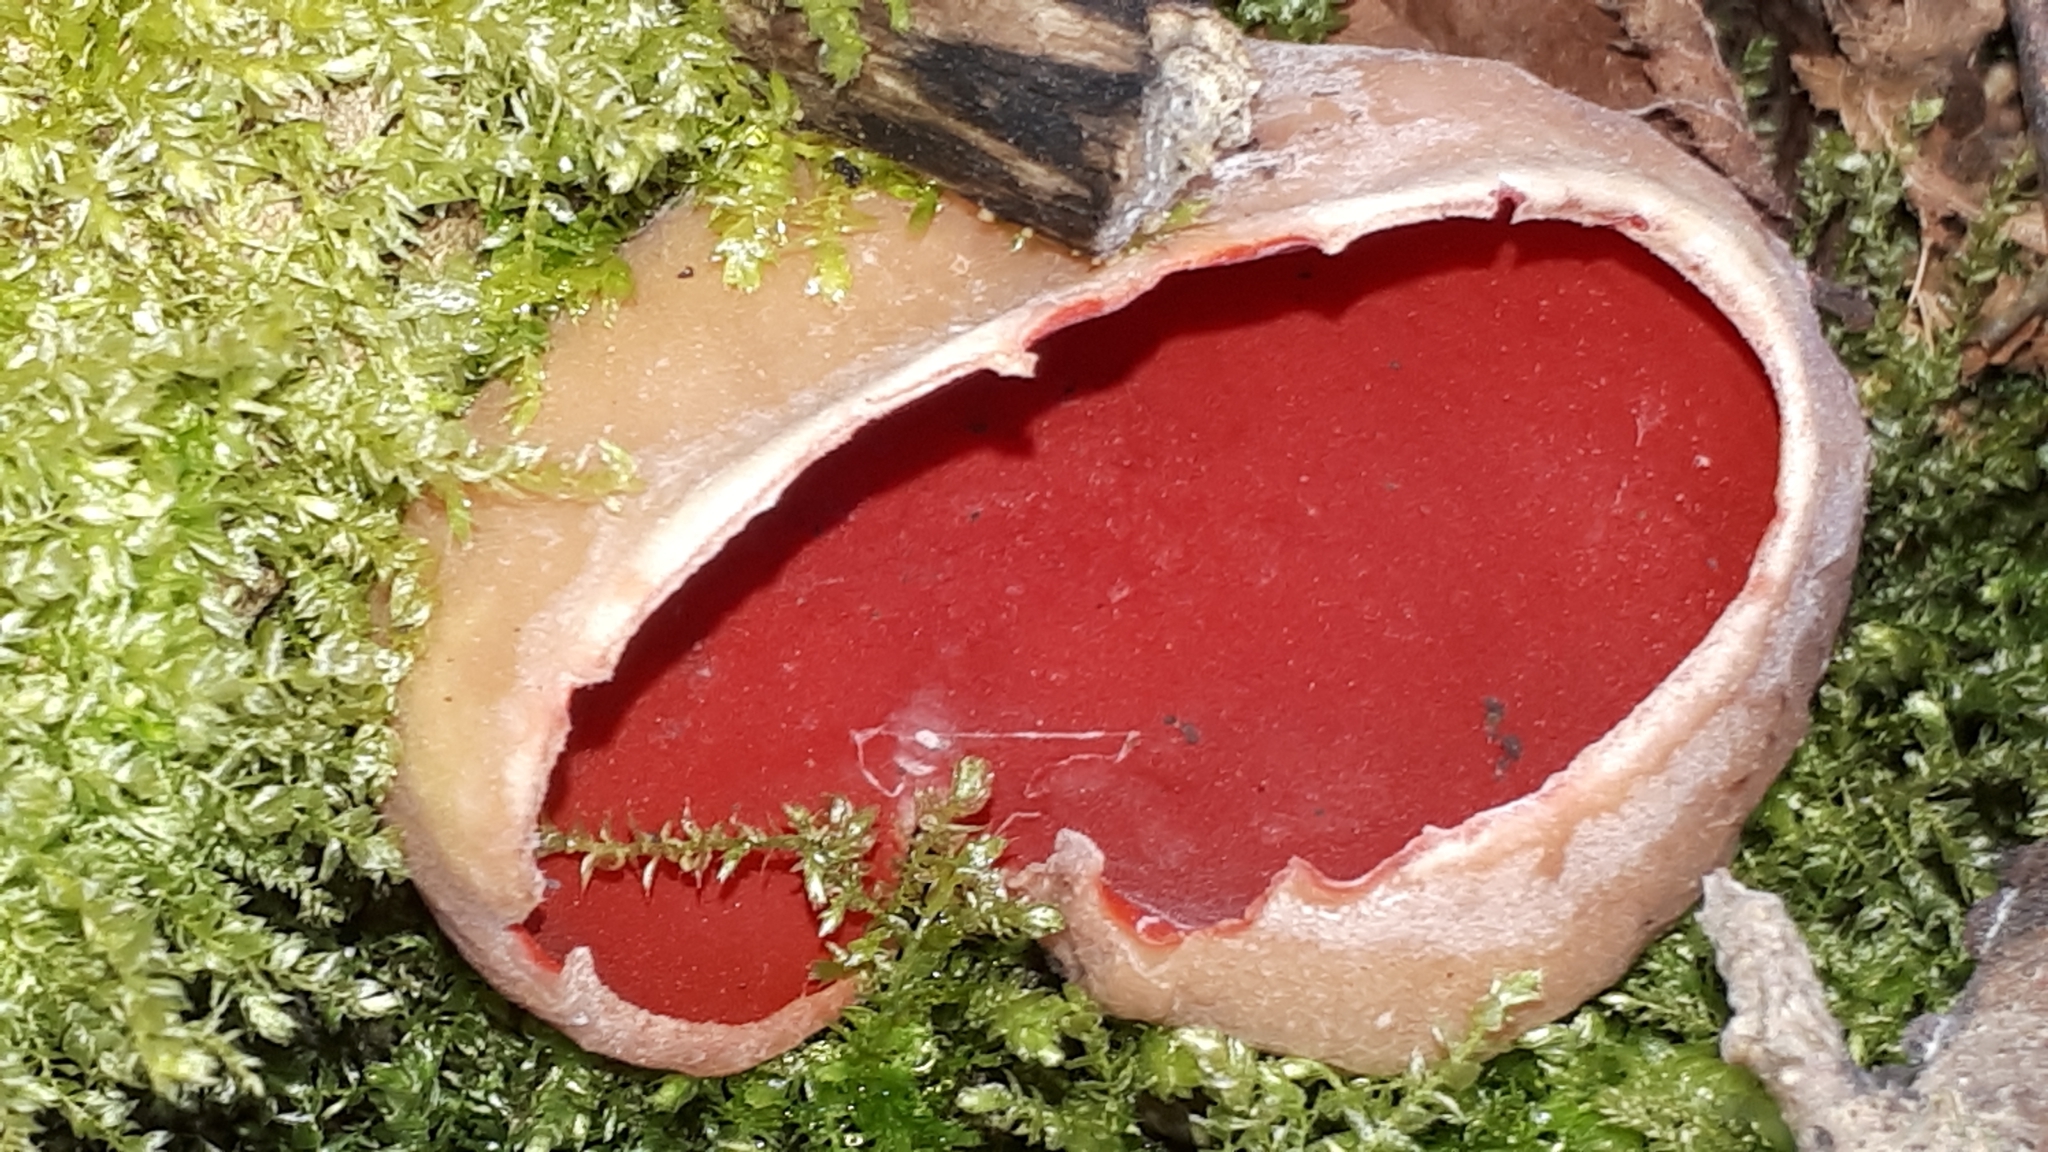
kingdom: Fungi
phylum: Ascomycota
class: Pezizomycetes
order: Pezizales
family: Sarcoscyphaceae
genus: Sarcoscypha
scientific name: Sarcoscypha
